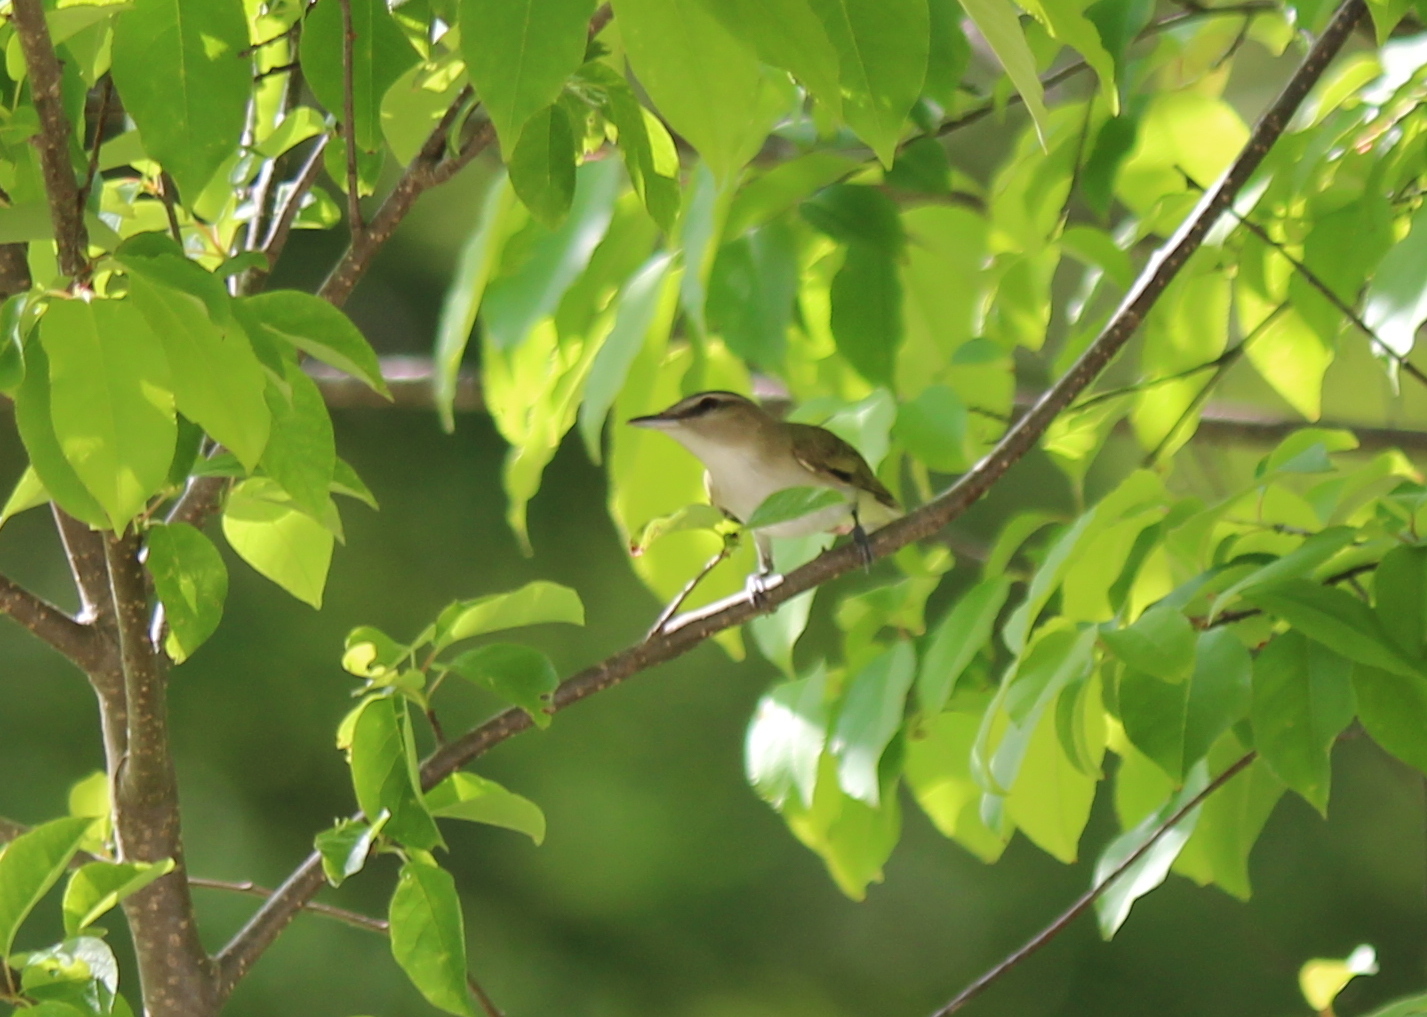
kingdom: Animalia
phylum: Chordata
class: Aves
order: Passeriformes
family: Vireonidae
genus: Vireo
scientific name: Vireo olivaceus
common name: Red-eyed vireo
